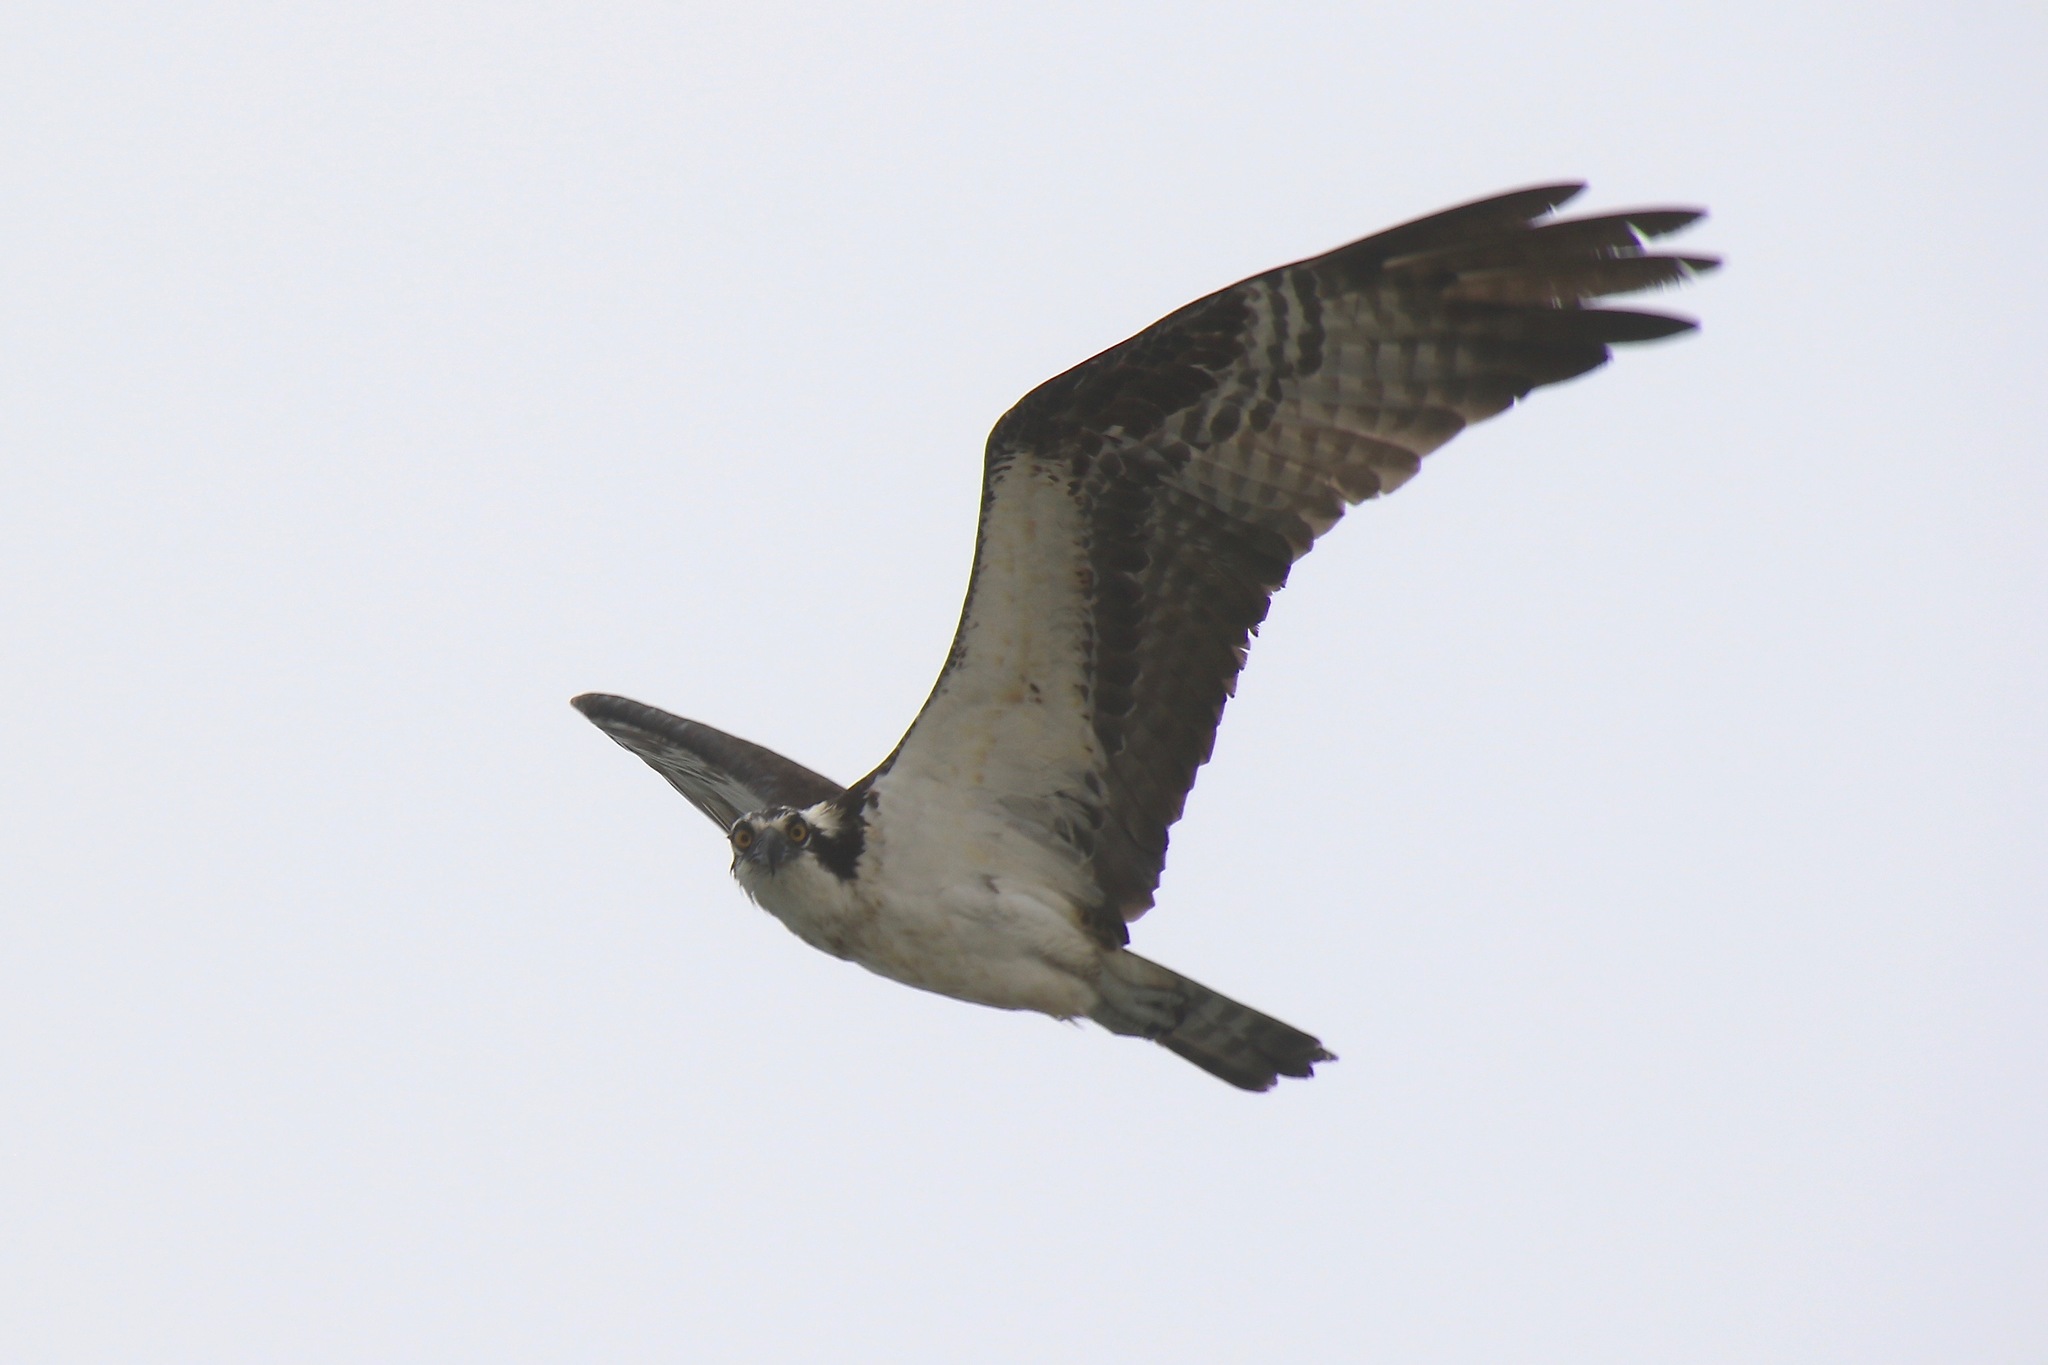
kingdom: Animalia
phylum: Chordata
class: Aves
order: Accipitriformes
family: Pandionidae
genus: Pandion
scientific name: Pandion haliaetus
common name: Osprey
